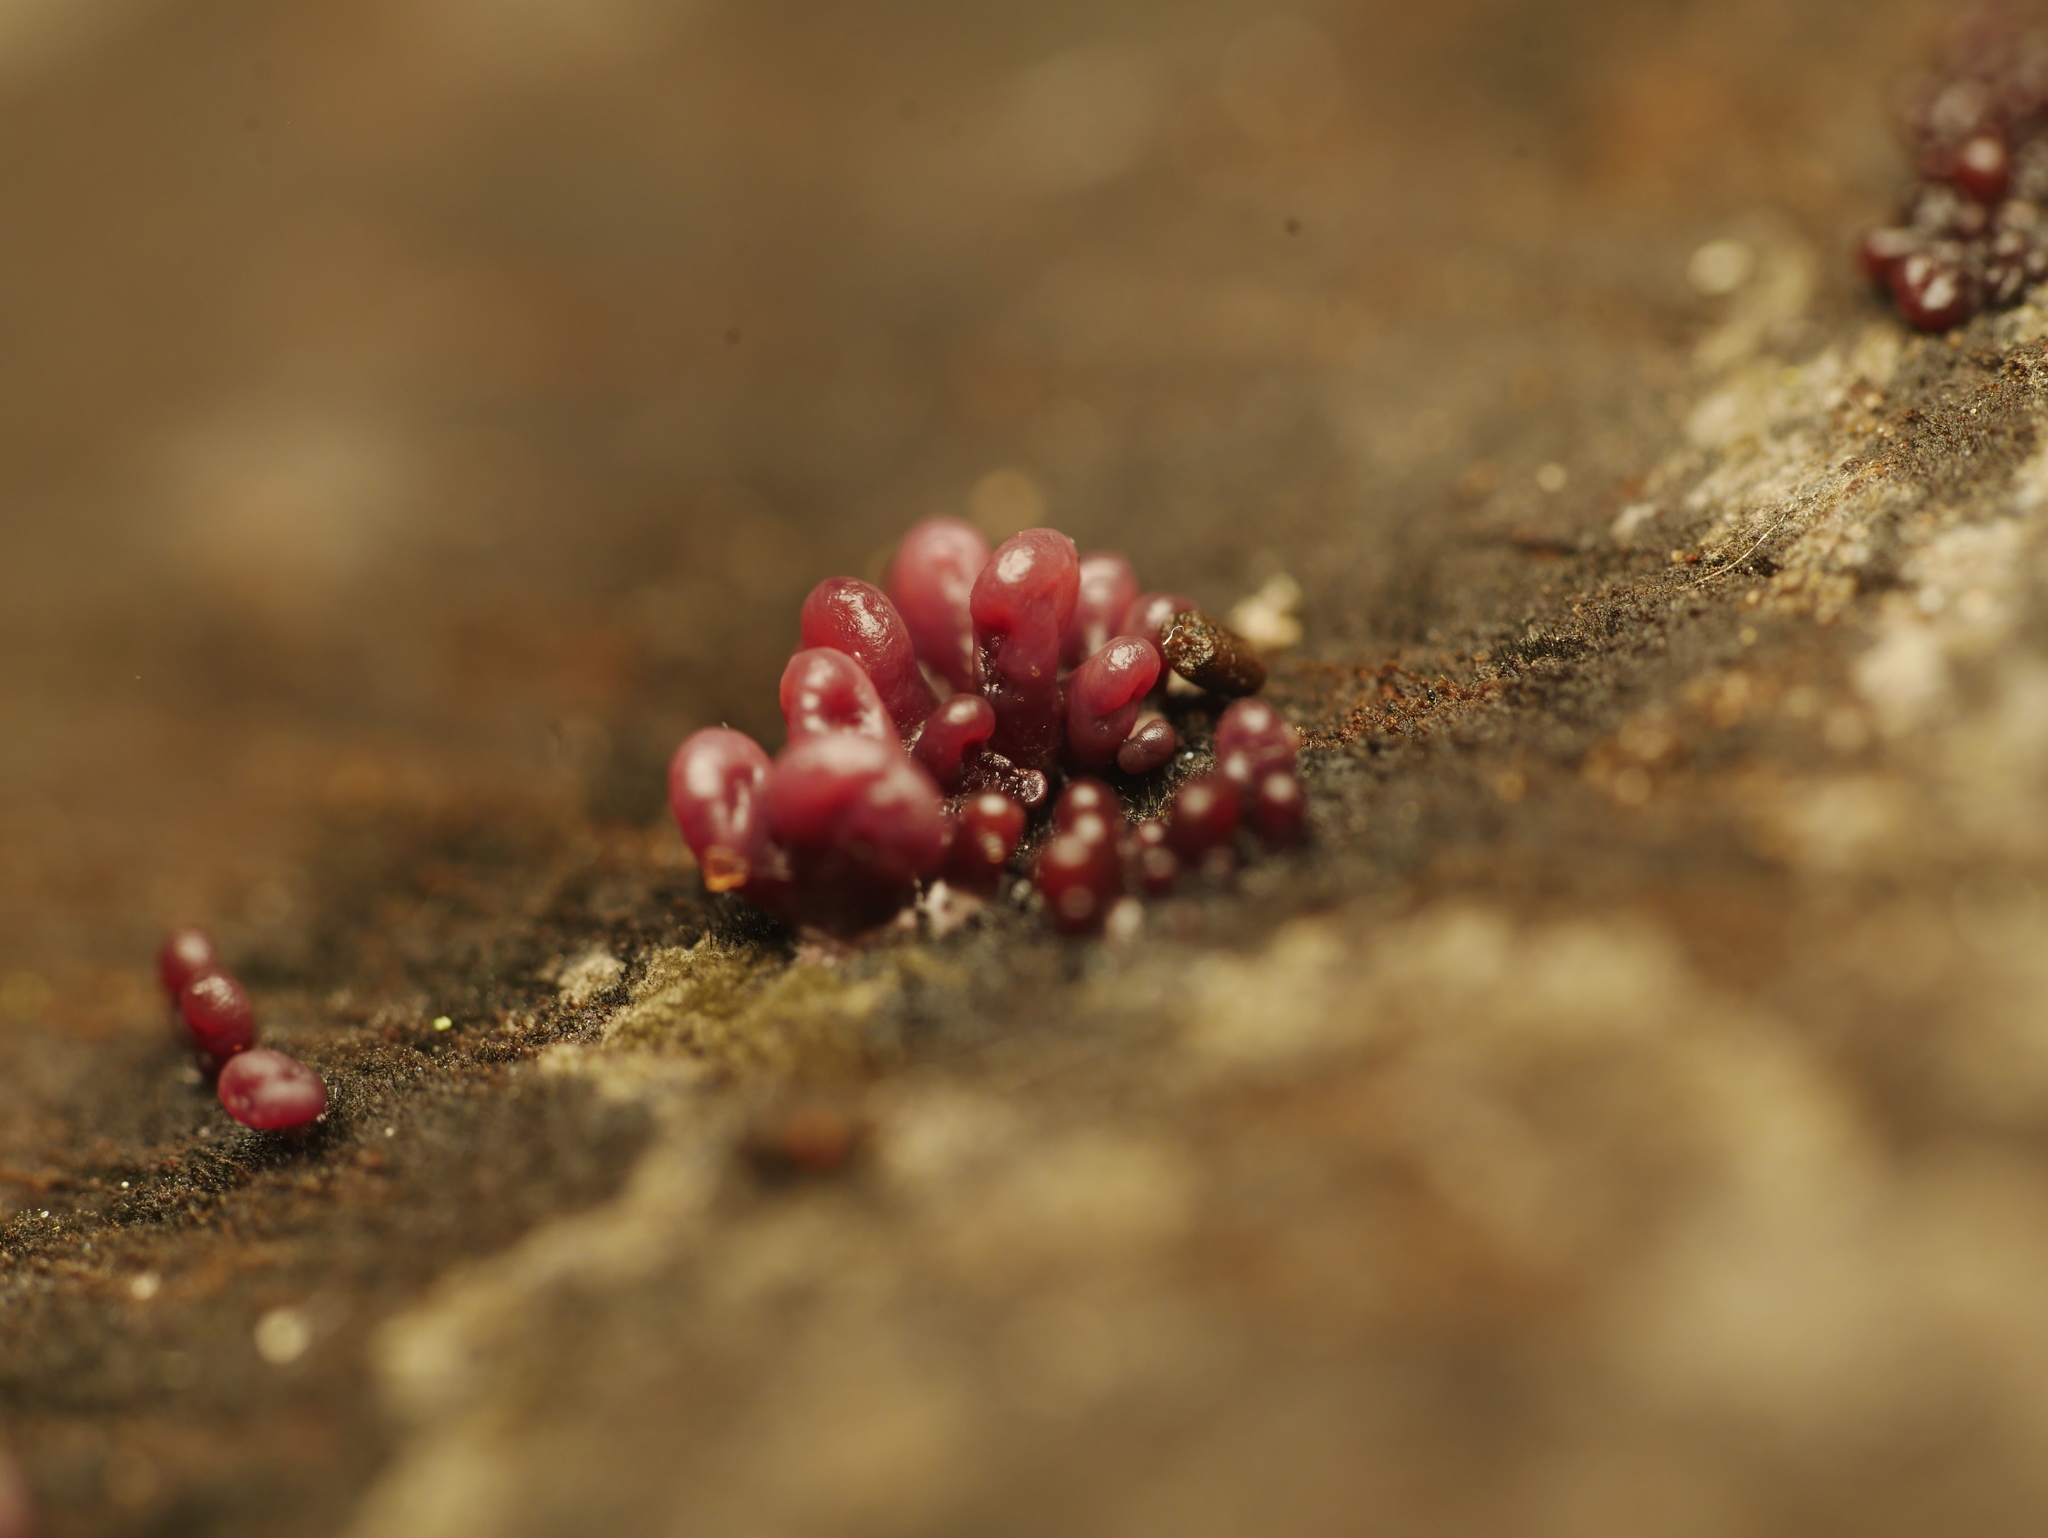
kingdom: Fungi
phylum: Ascomycota
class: Leotiomycetes
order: Helotiales
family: Gelatinodiscaceae
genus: Ascocoryne
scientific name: Ascocoryne sarcoides
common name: Purple jellydisc
